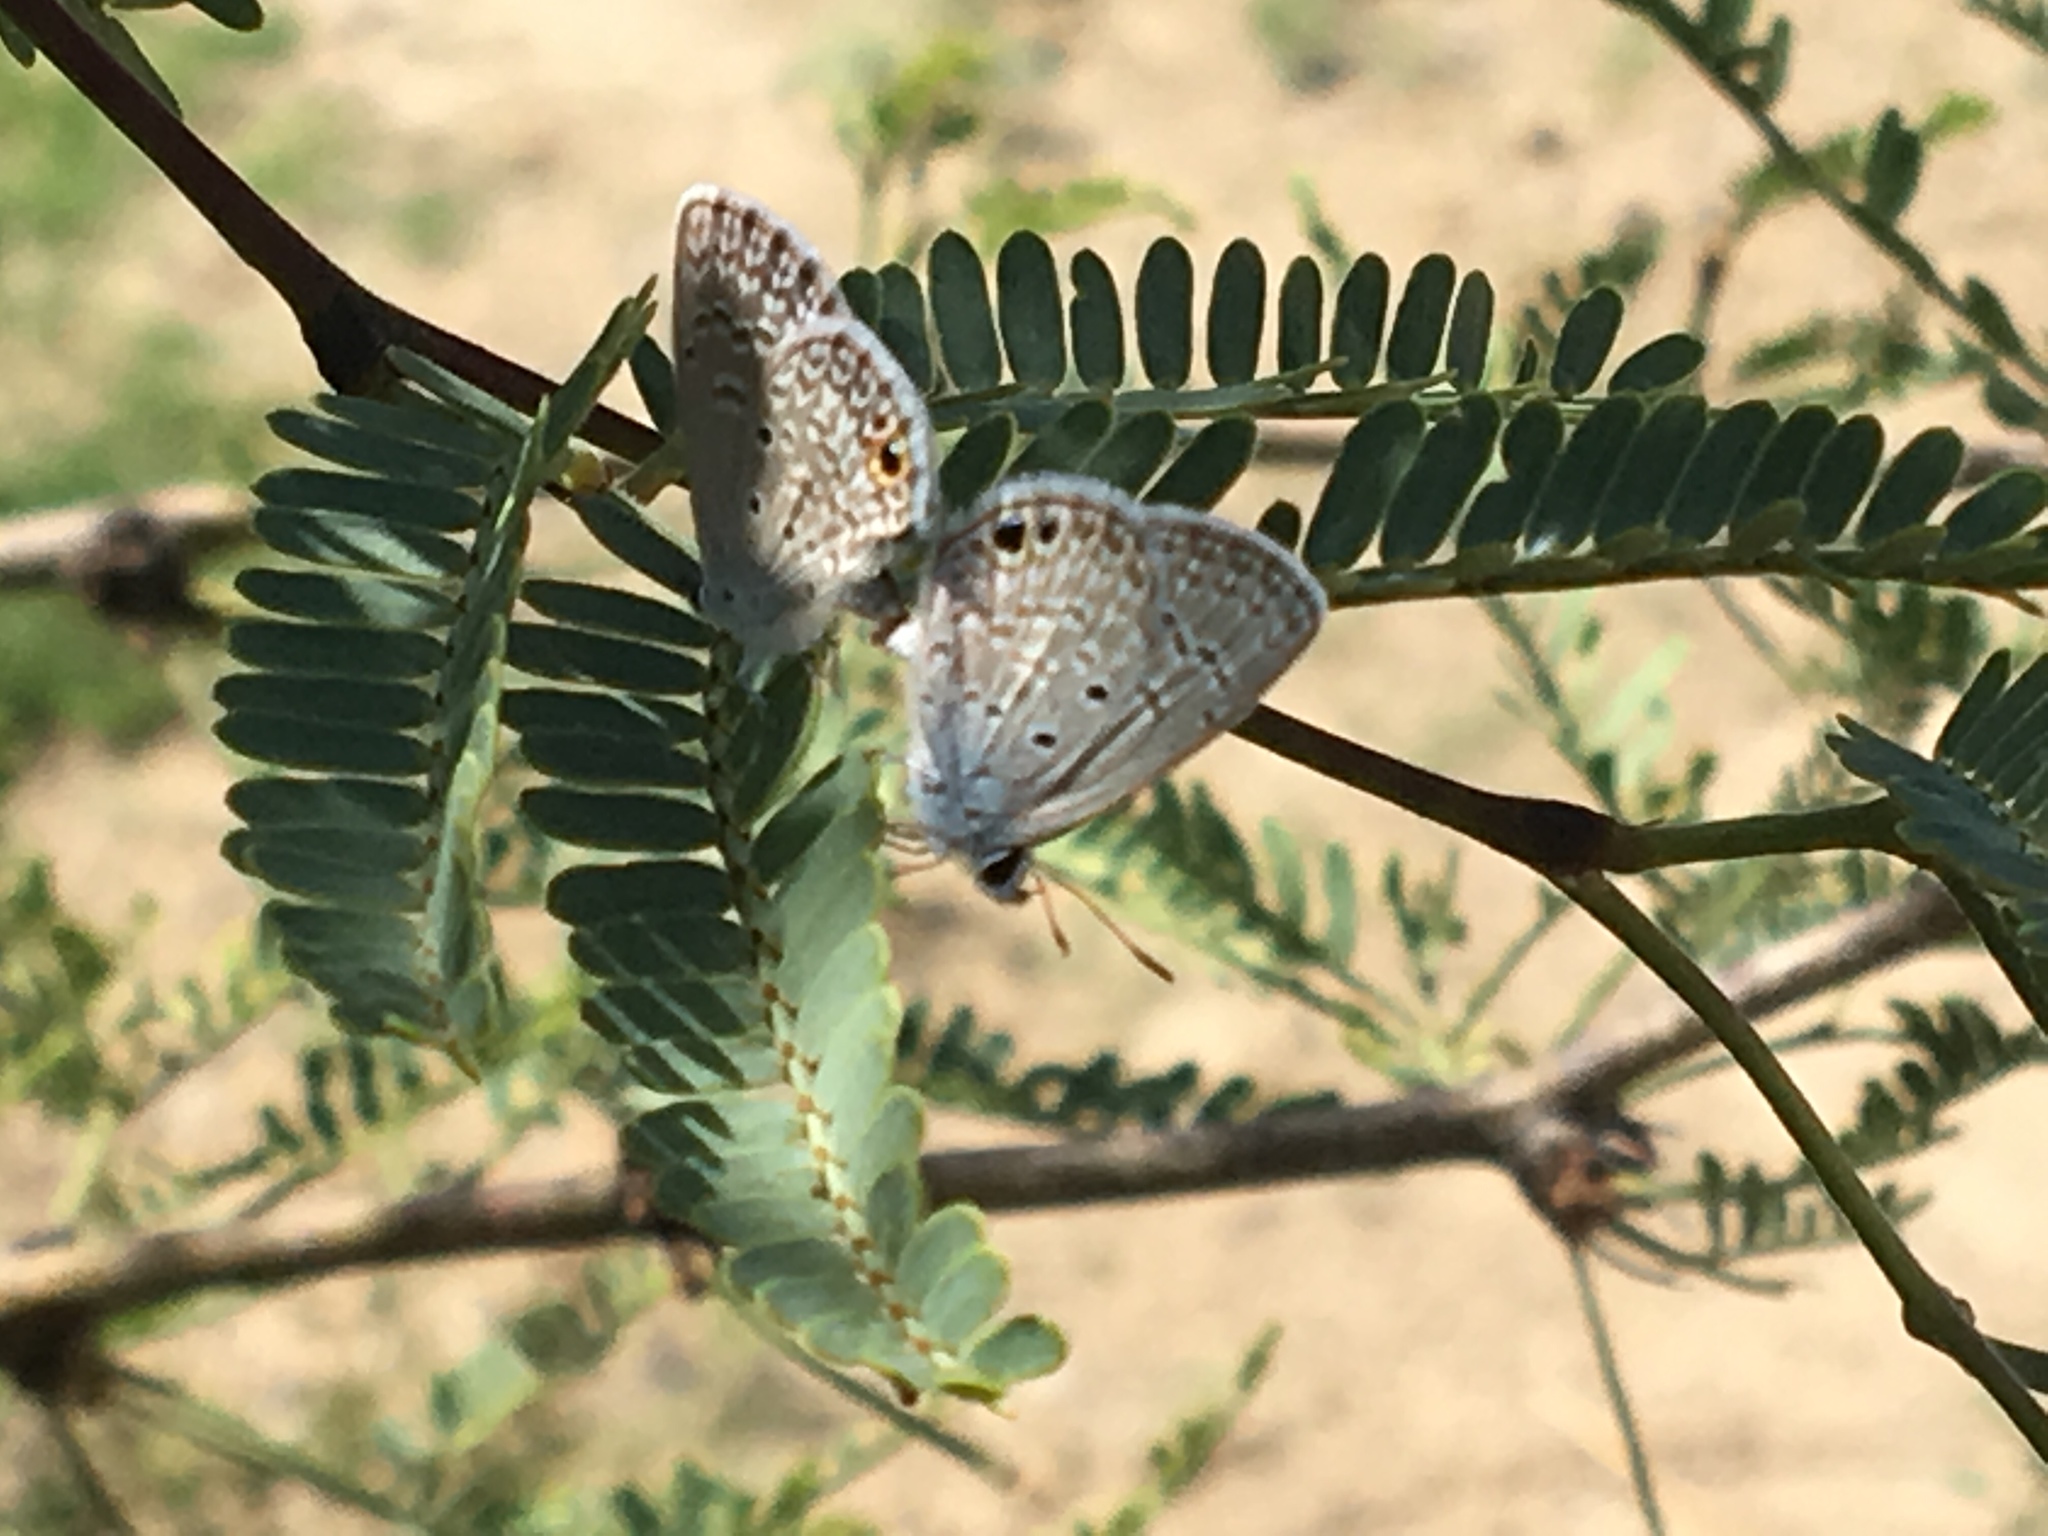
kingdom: Animalia
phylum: Arthropoda
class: Insecta
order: Lepidoptera
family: Lycaenidae
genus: Hemiargus
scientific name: Hemiargus ceraunus
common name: Ceraunus blue
